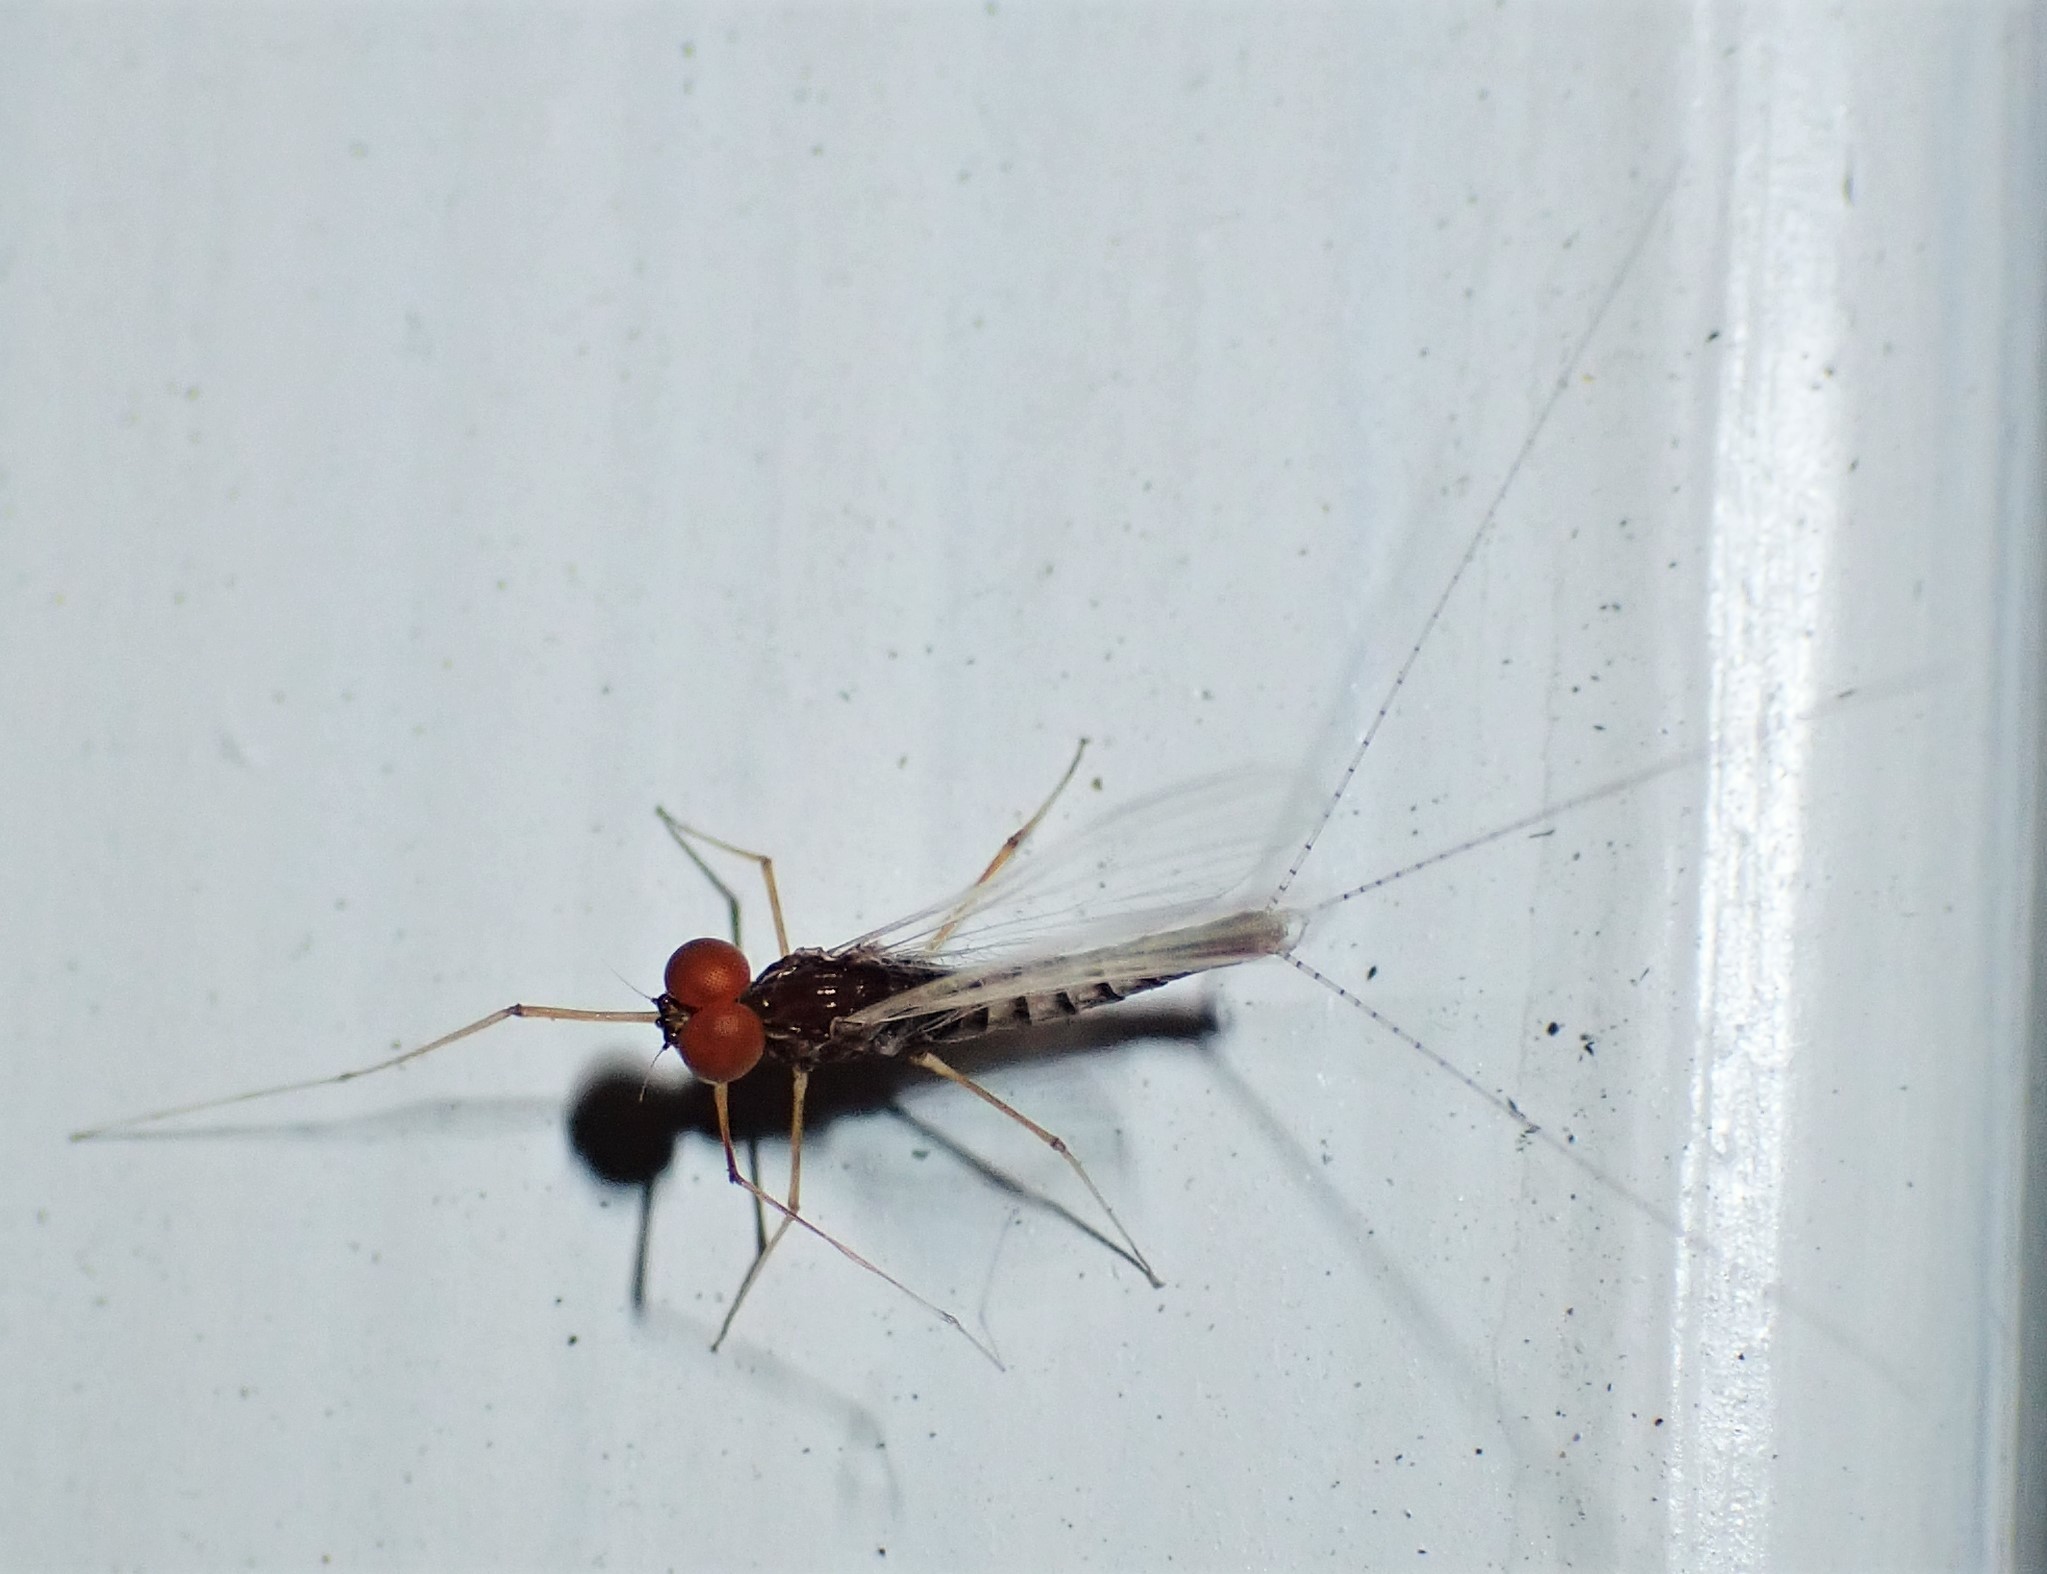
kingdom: Animalia
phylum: Arthropoda
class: Insecta
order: Ephemeroptera
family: Leptophlebiidae
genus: Mauiulus
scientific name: Mauiulus luma
